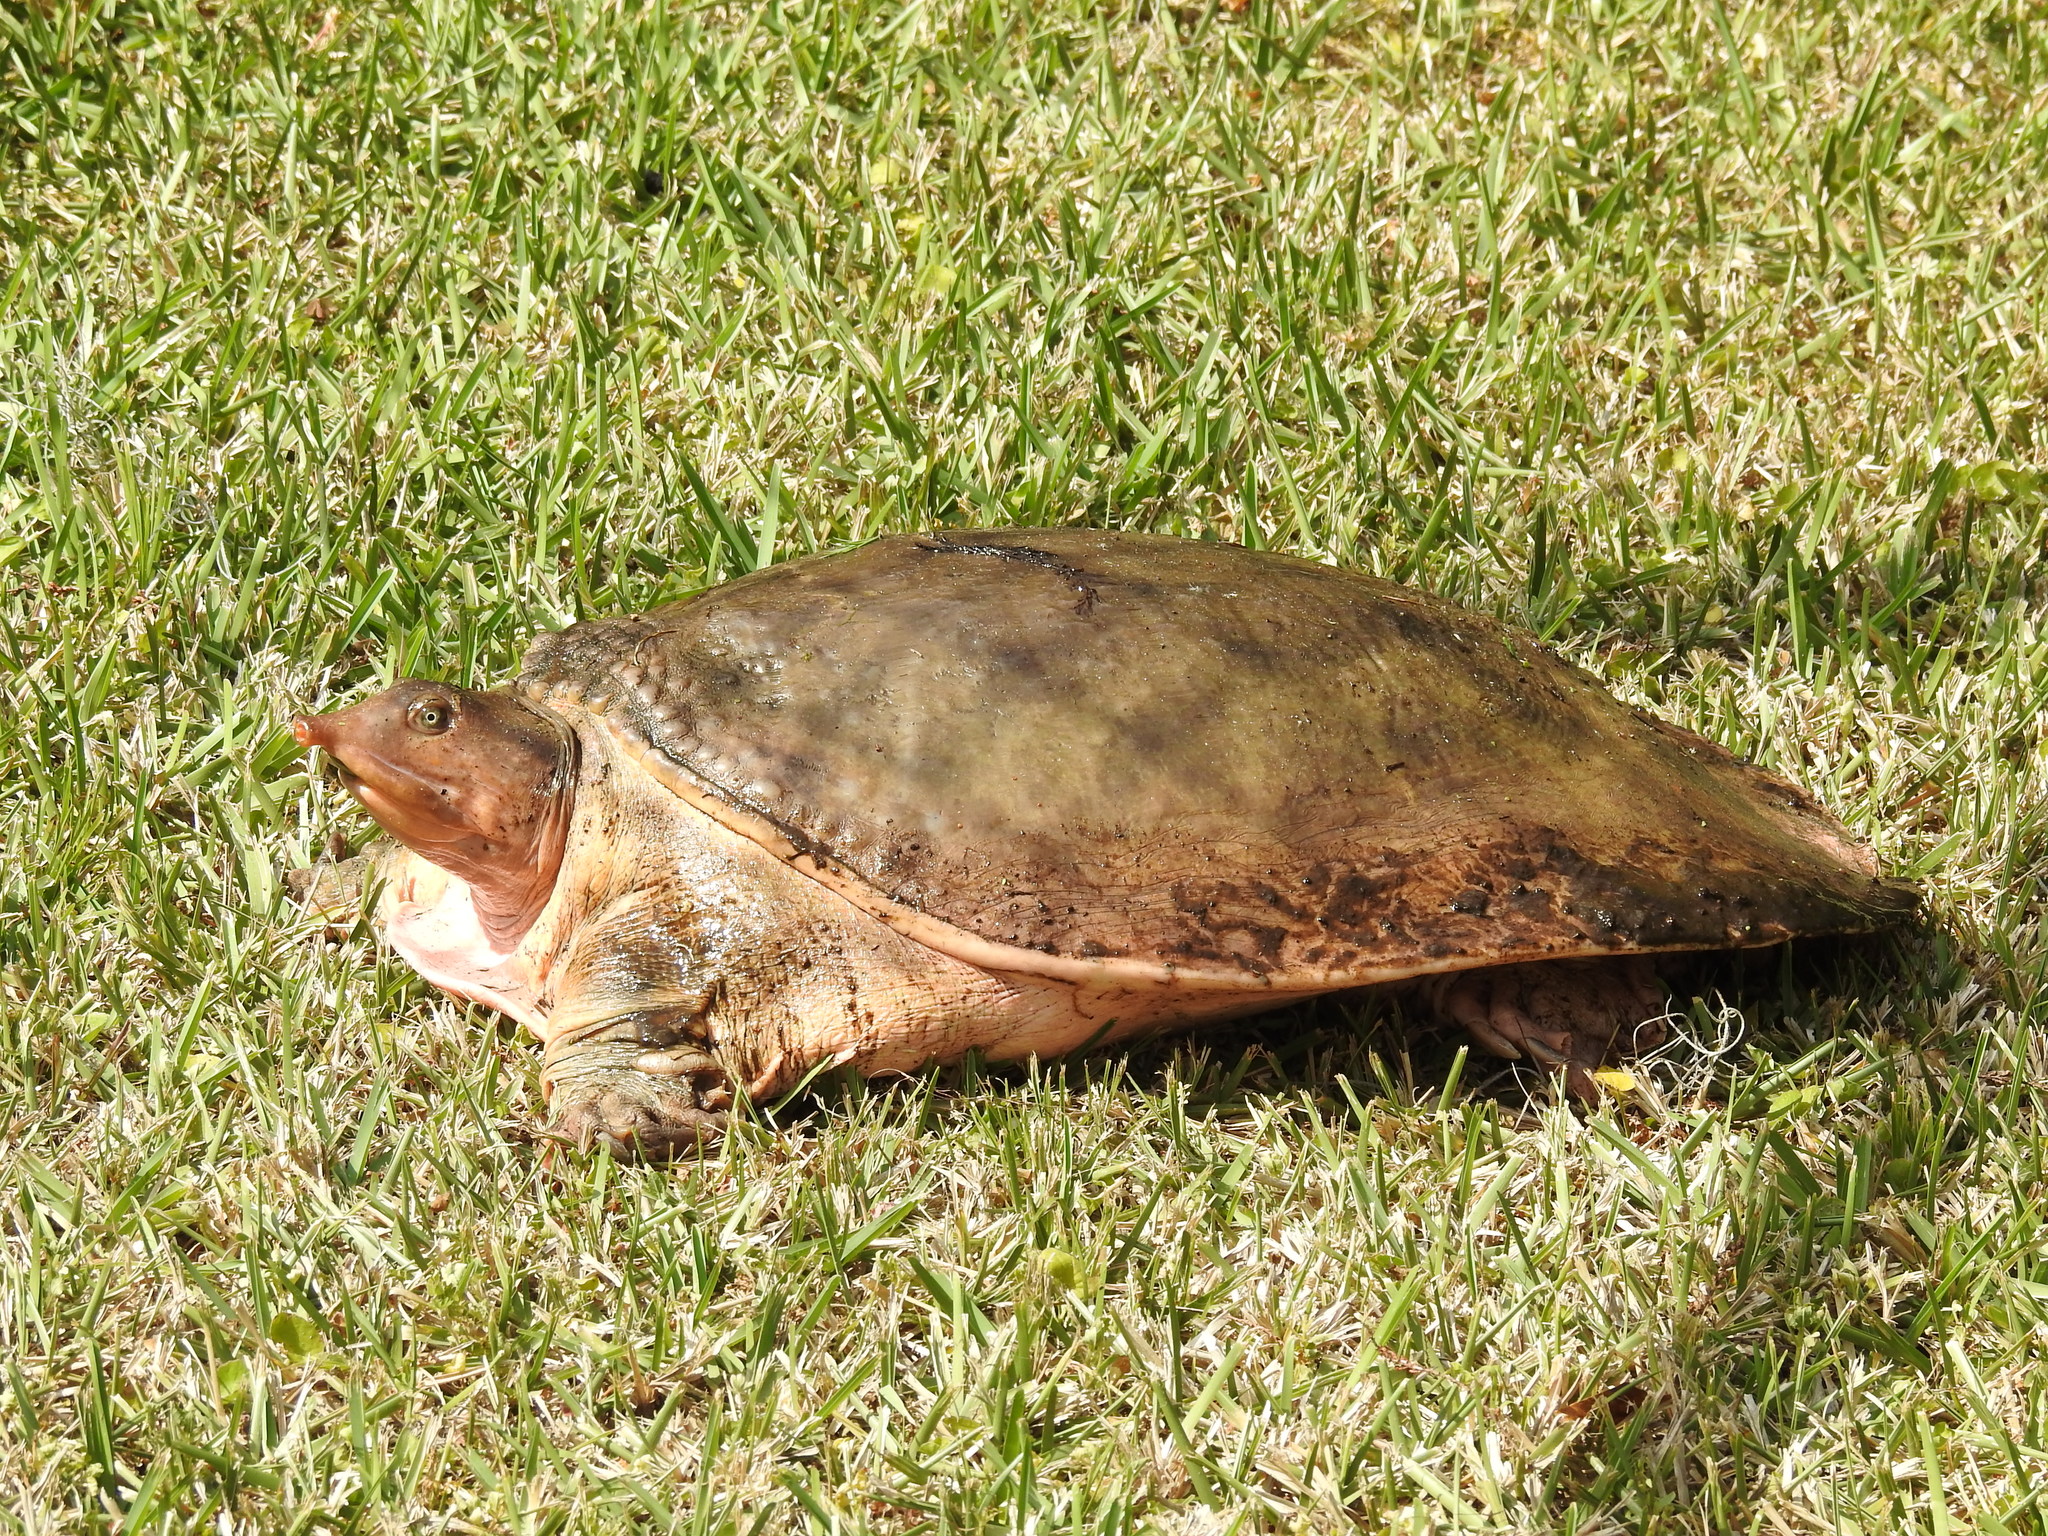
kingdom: Animalia
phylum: Chordata
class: Testudines
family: Trionychidae
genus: Apalone
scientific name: Apalone ferox
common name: Florida softshell turtle
